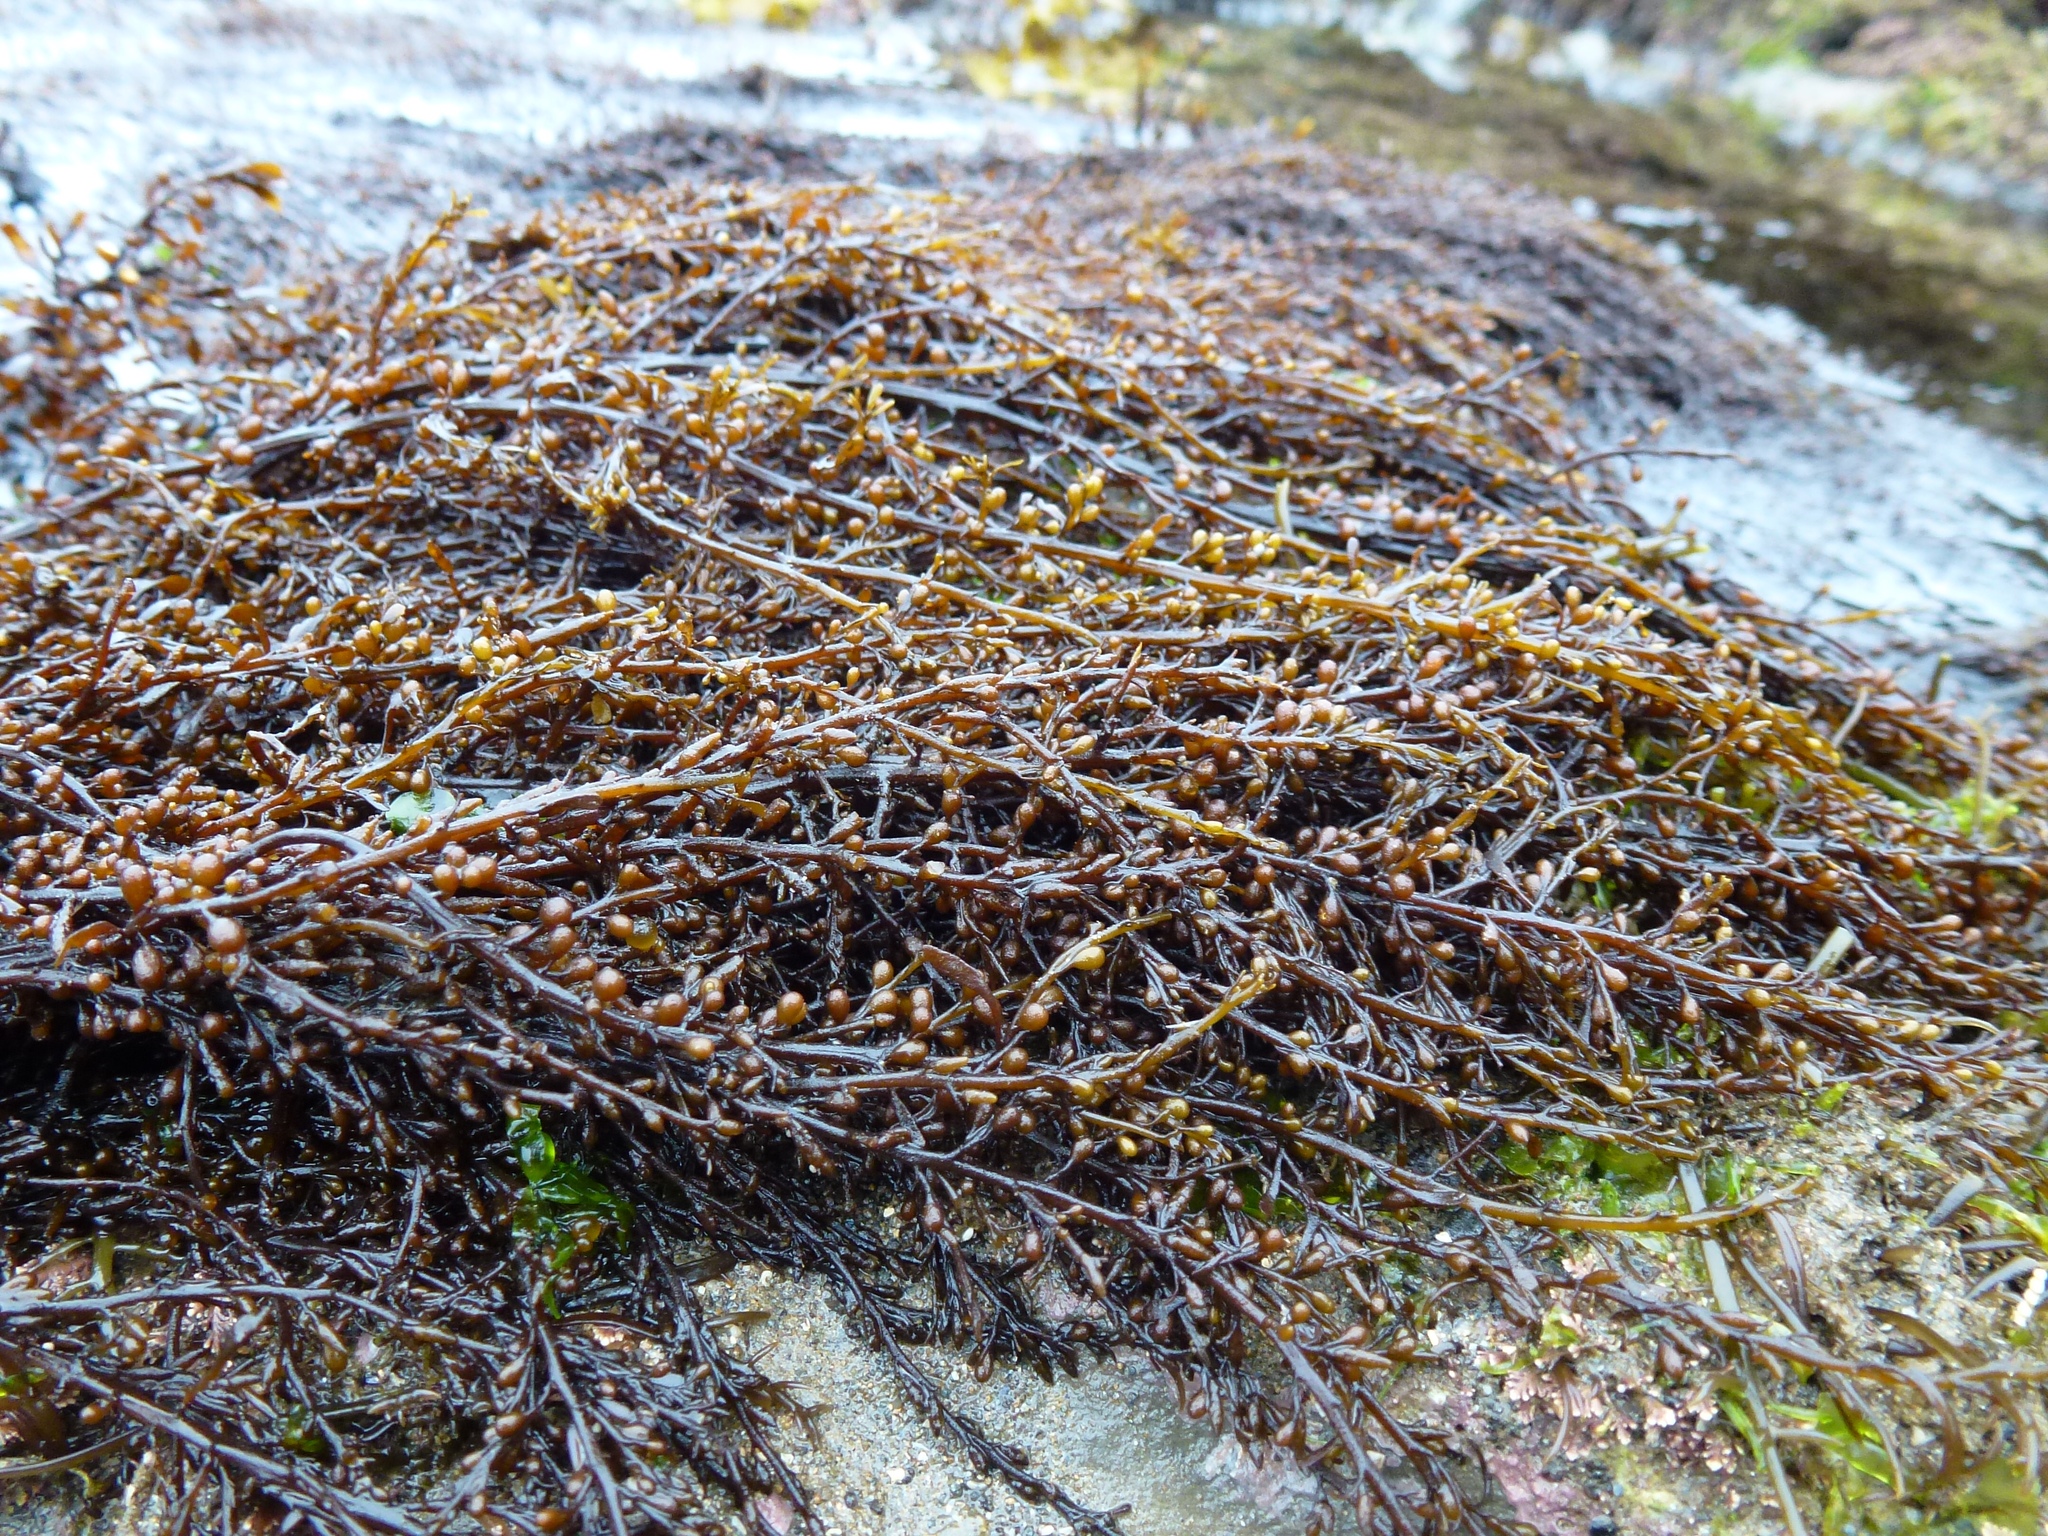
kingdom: Chromista
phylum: Ochrophyta
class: Phaeophyceae
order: Fucales
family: Sargassaceae
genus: Sargassum
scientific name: Sargassum muticum
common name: Japweed
